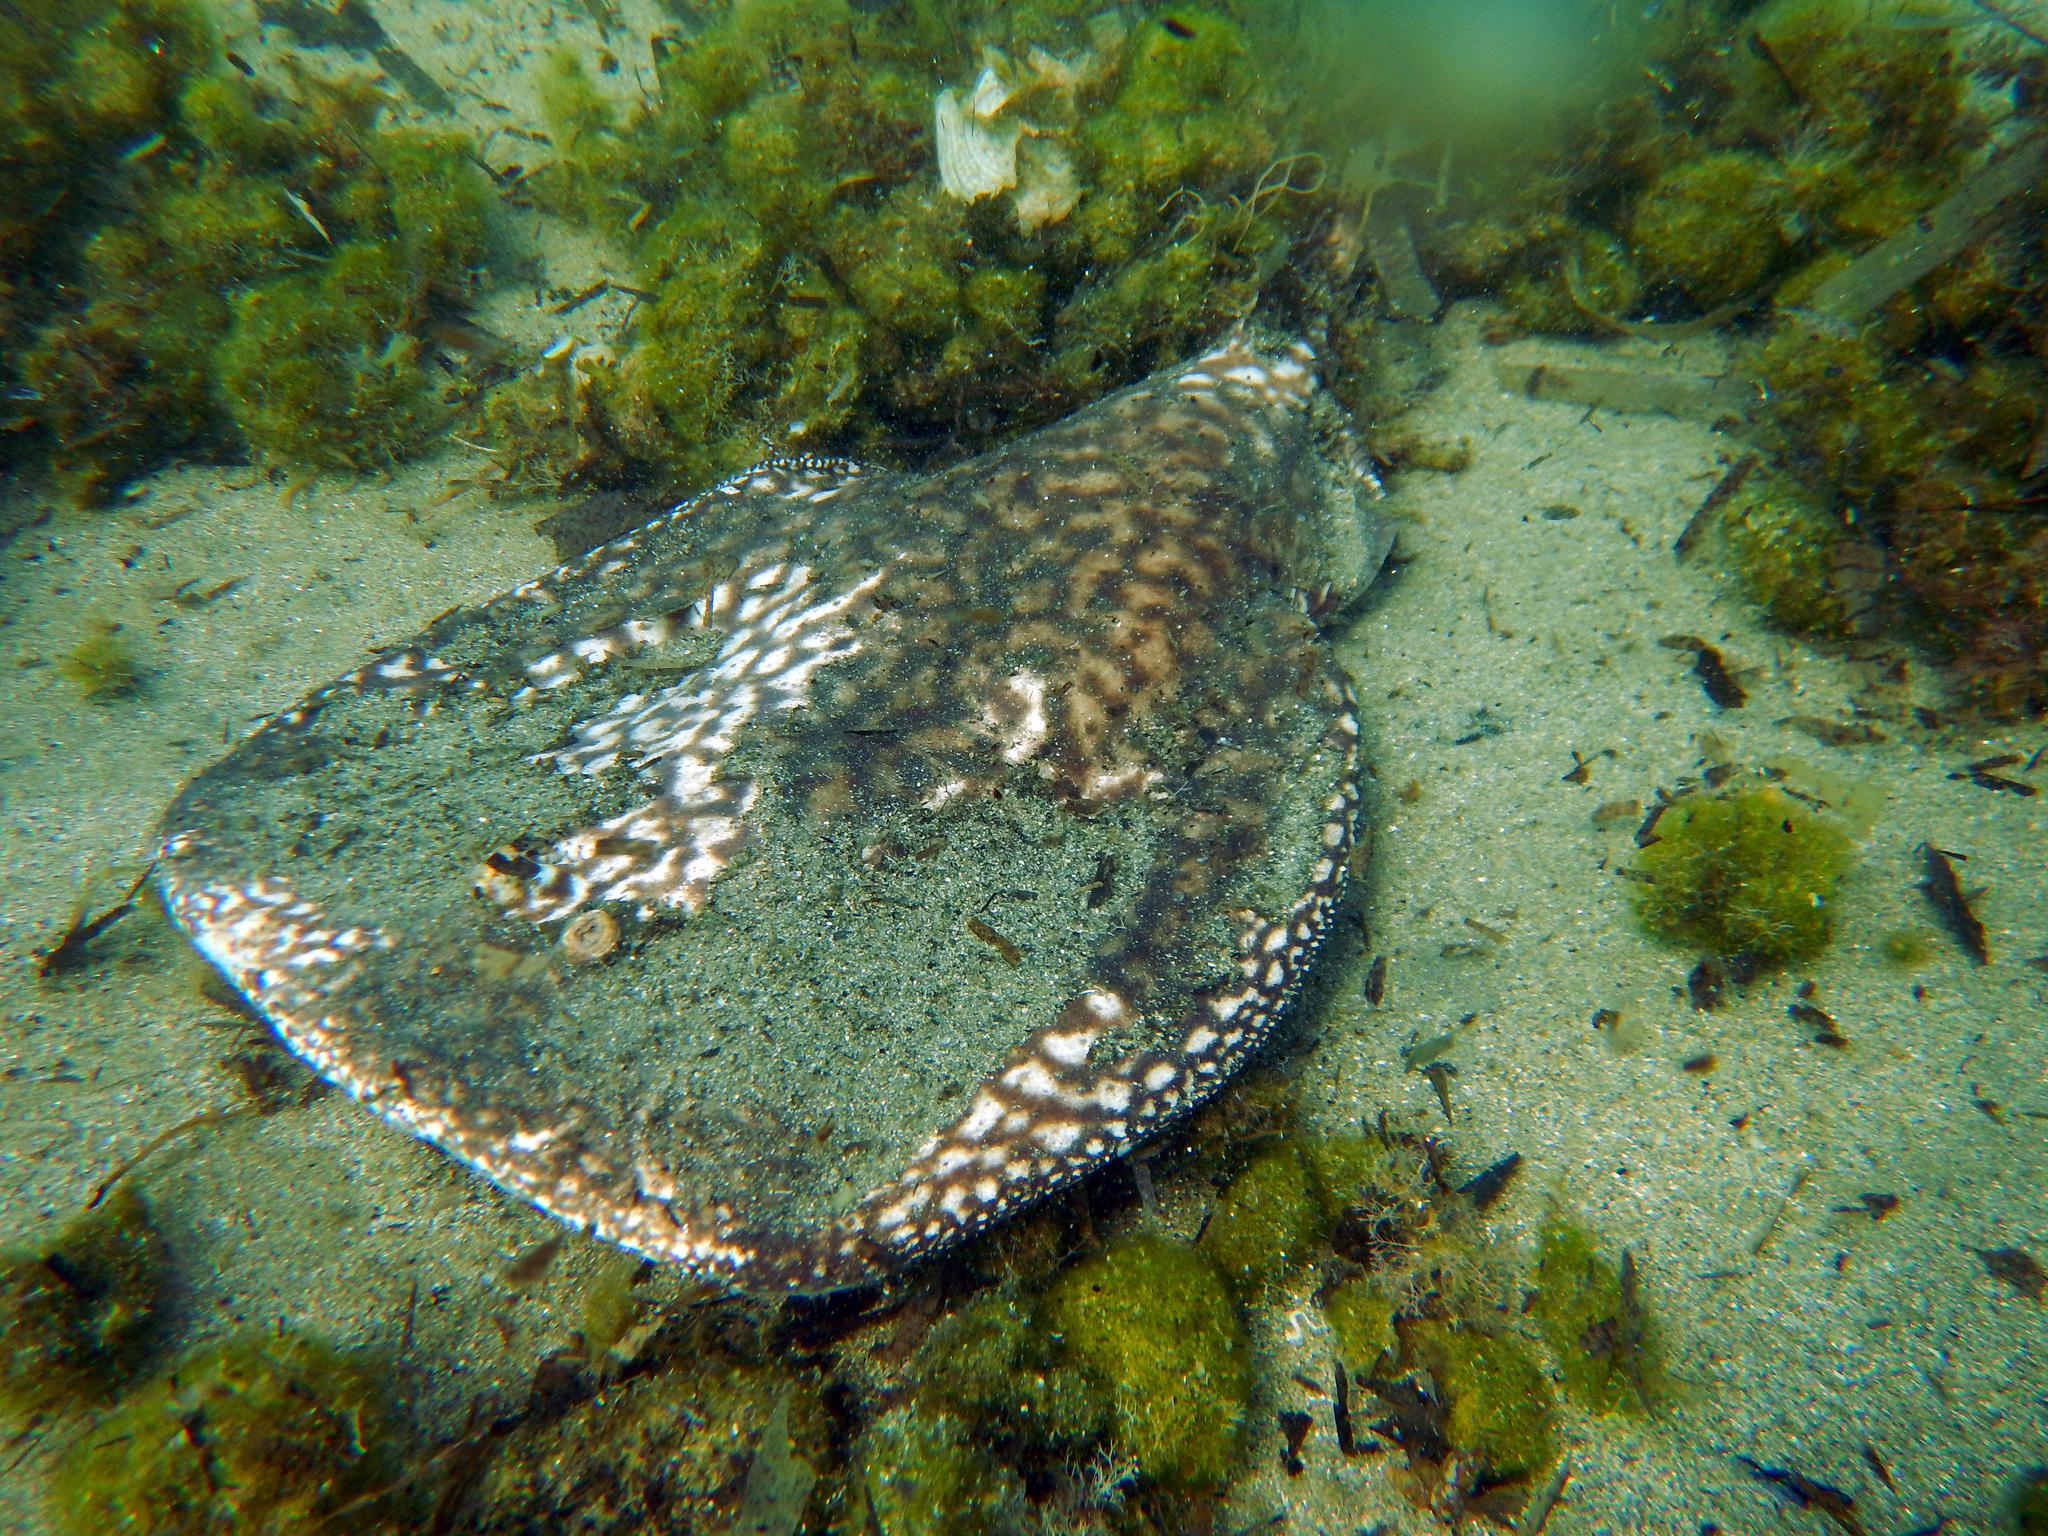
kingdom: Animalia
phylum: Chordata
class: Elasmobranchii
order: Torpediniformes
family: Torpedinidae
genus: Torpedo
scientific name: Torpedo marmorata
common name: Marbled electric ray
